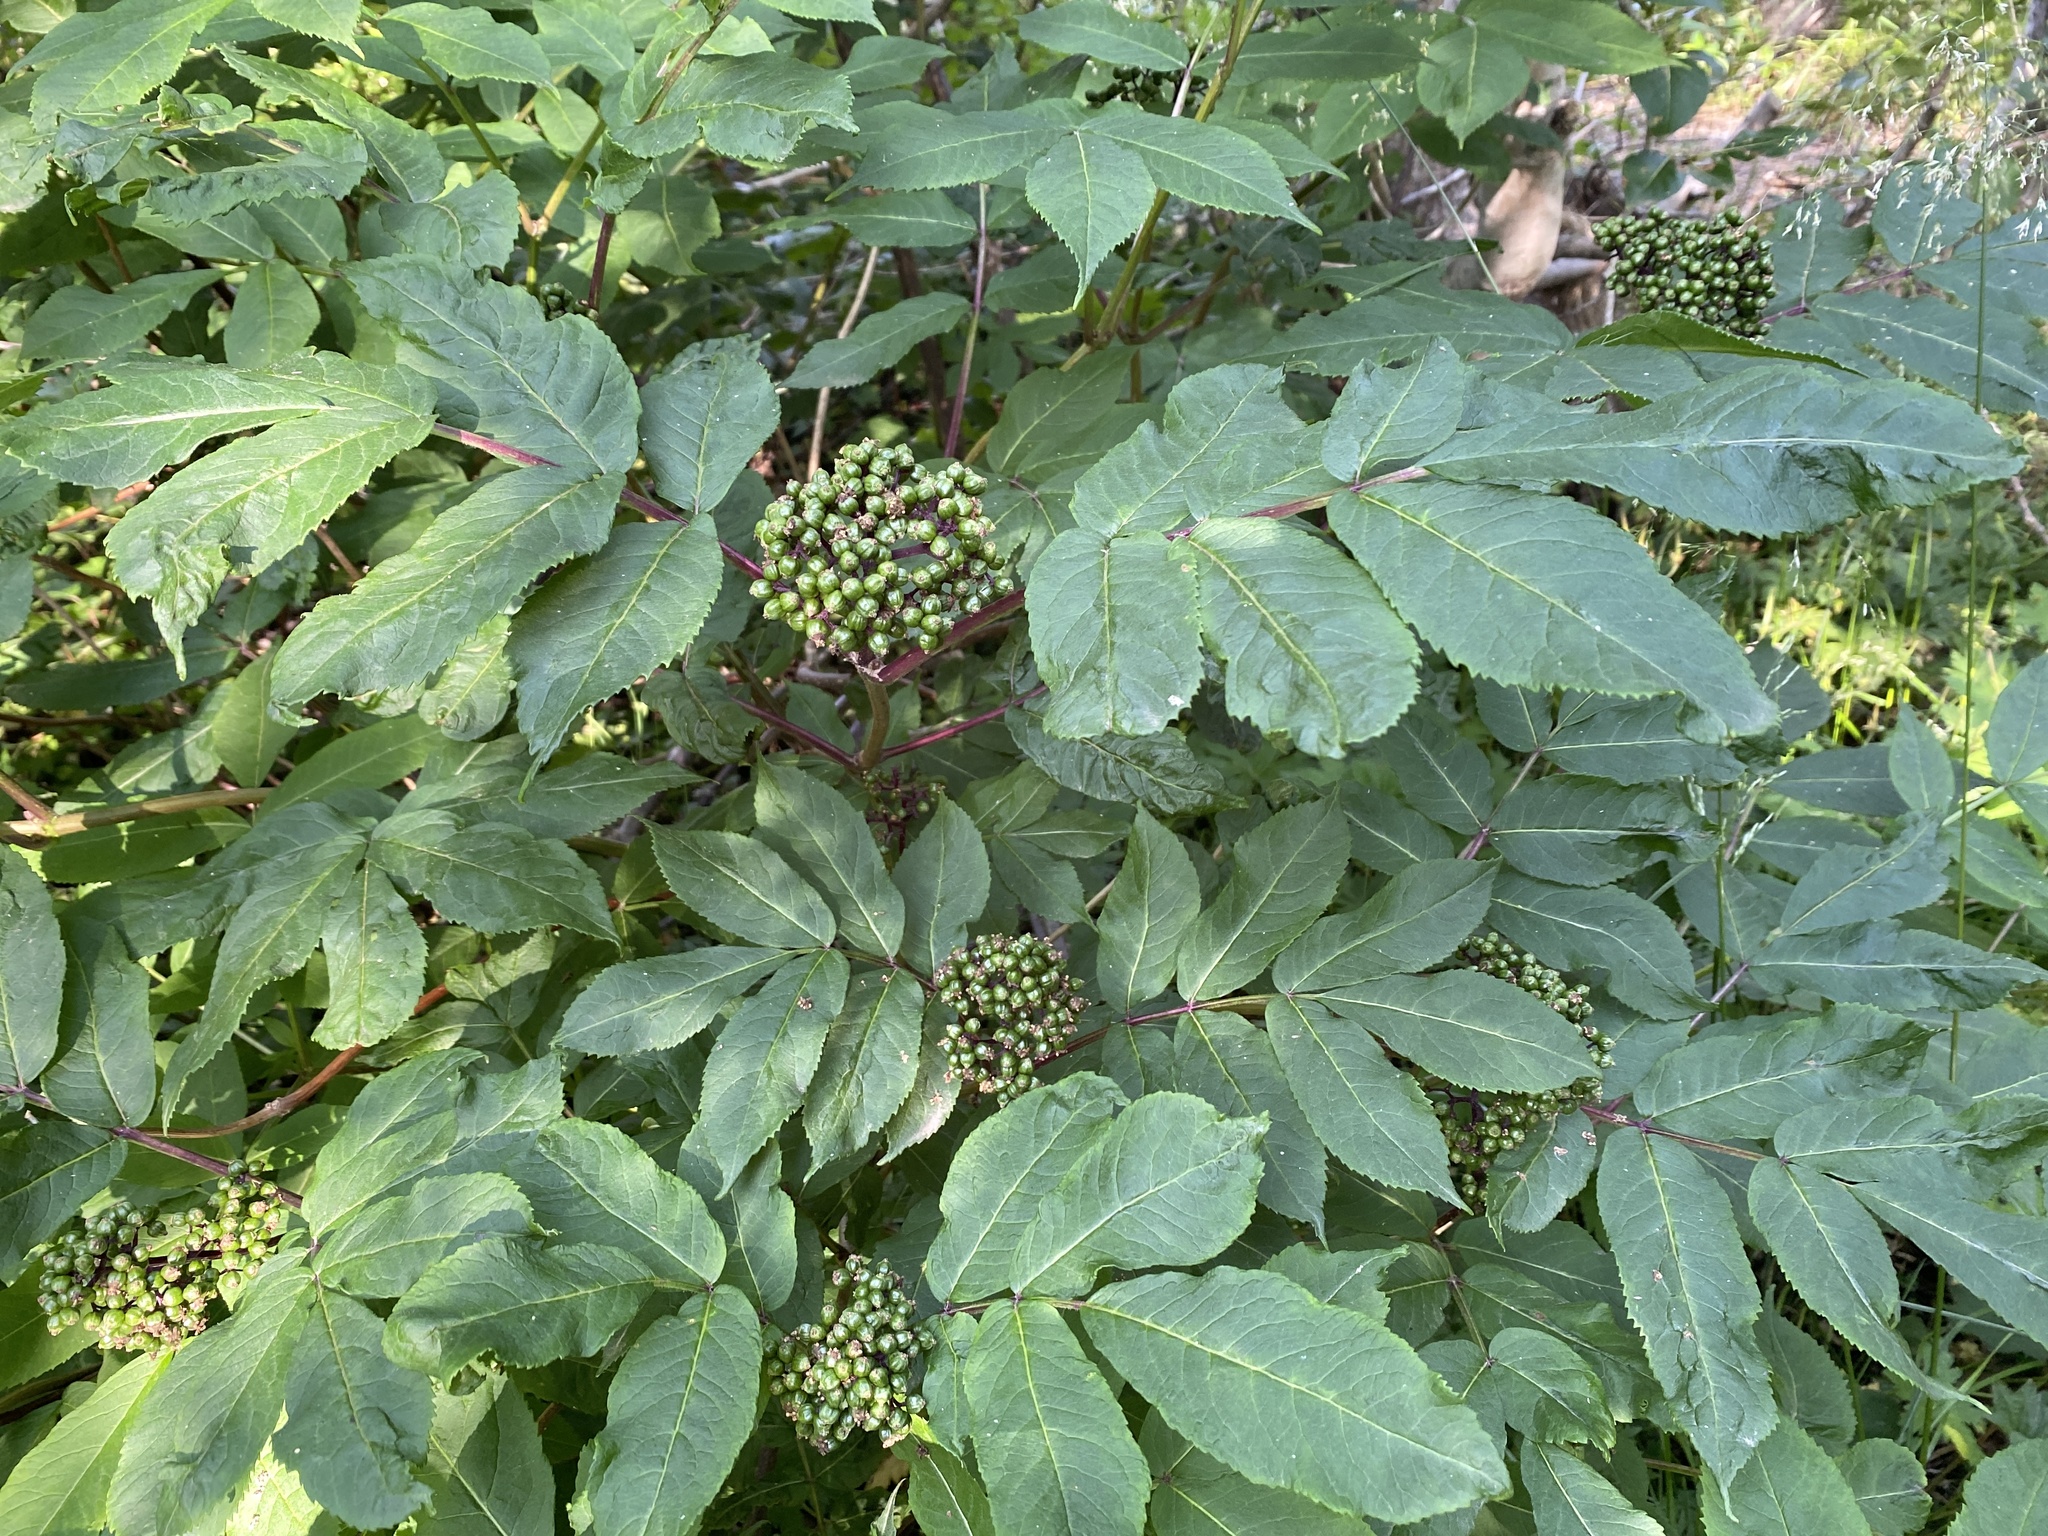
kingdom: Plantae
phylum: Tracheophyta
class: Magnoliopsida
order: Dipsacales
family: Viburnaceae
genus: Sambucus
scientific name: Sambucus racemosa
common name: Red-berried elder
